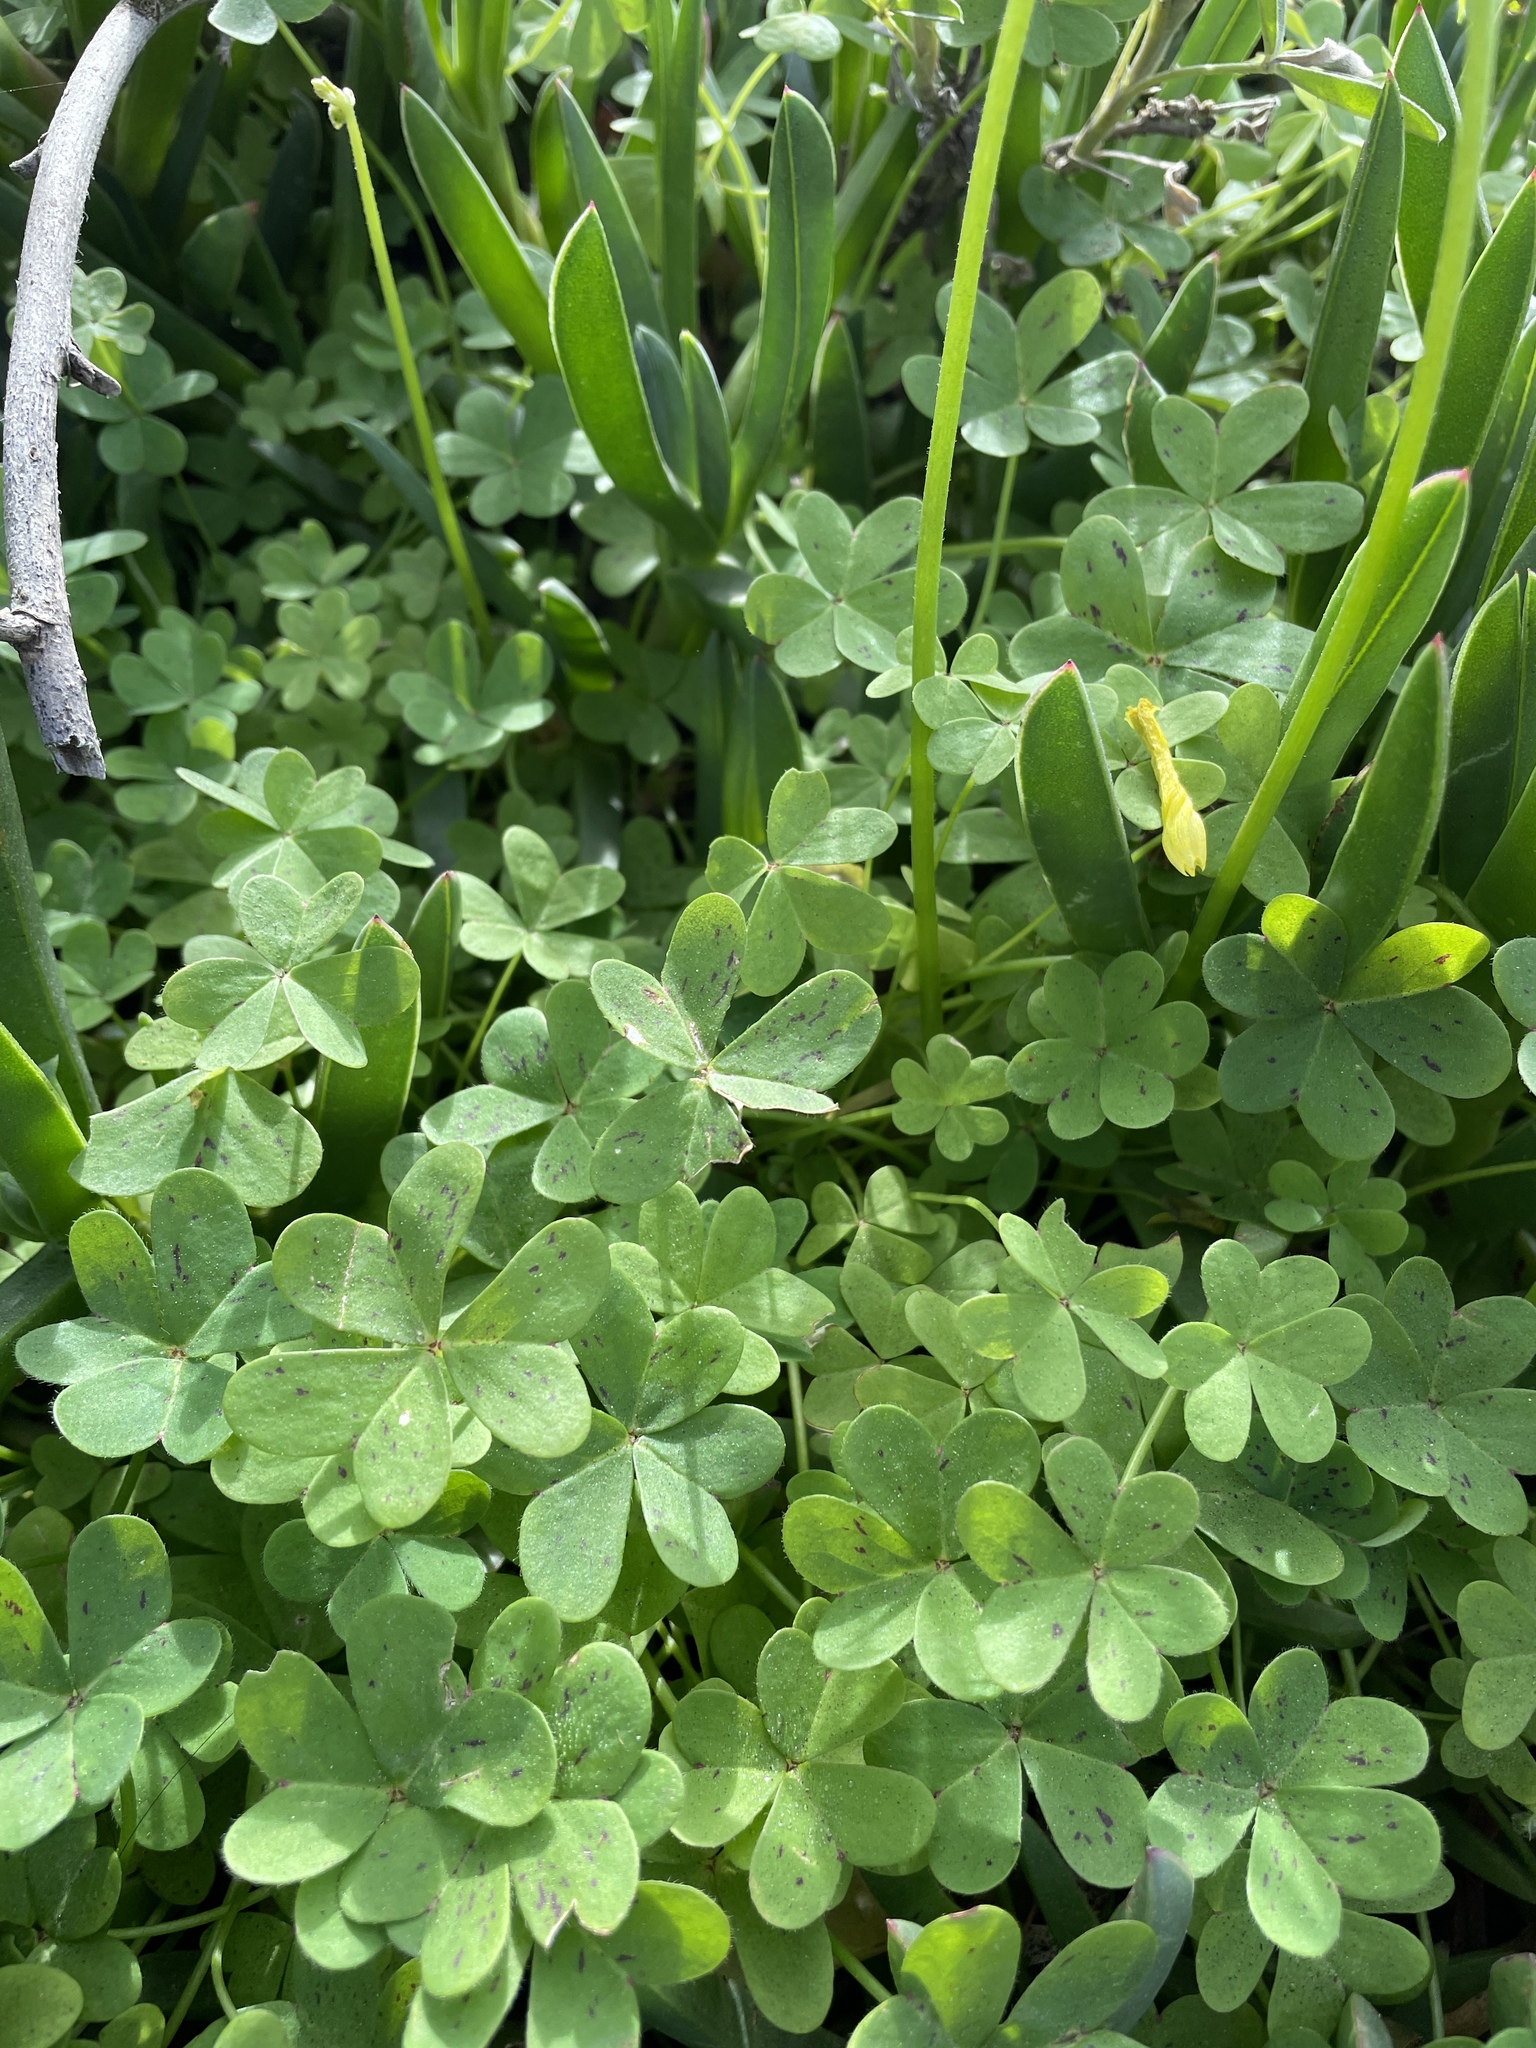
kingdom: Plantae
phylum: Tracheophyta
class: Magnoliopsida
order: Oxalidales
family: Oxalidaceae
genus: Oxalis
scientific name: Oxalis pes-caprae
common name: Bermuda-buttercup
